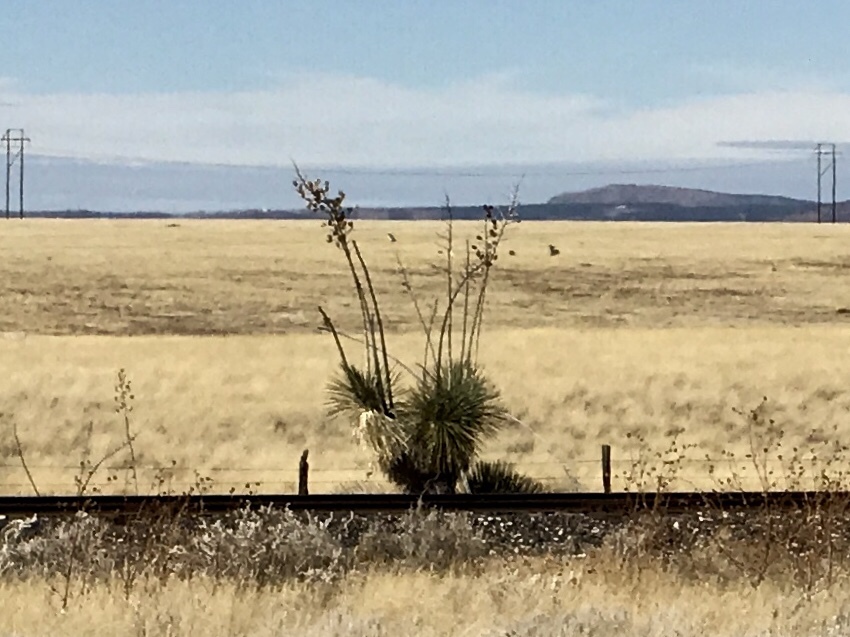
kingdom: Plantae
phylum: Tracheophyta
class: Liliopsida
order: Asparagales
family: Asparagaceae
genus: Yucca
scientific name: Yucca elata
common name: Palmella
